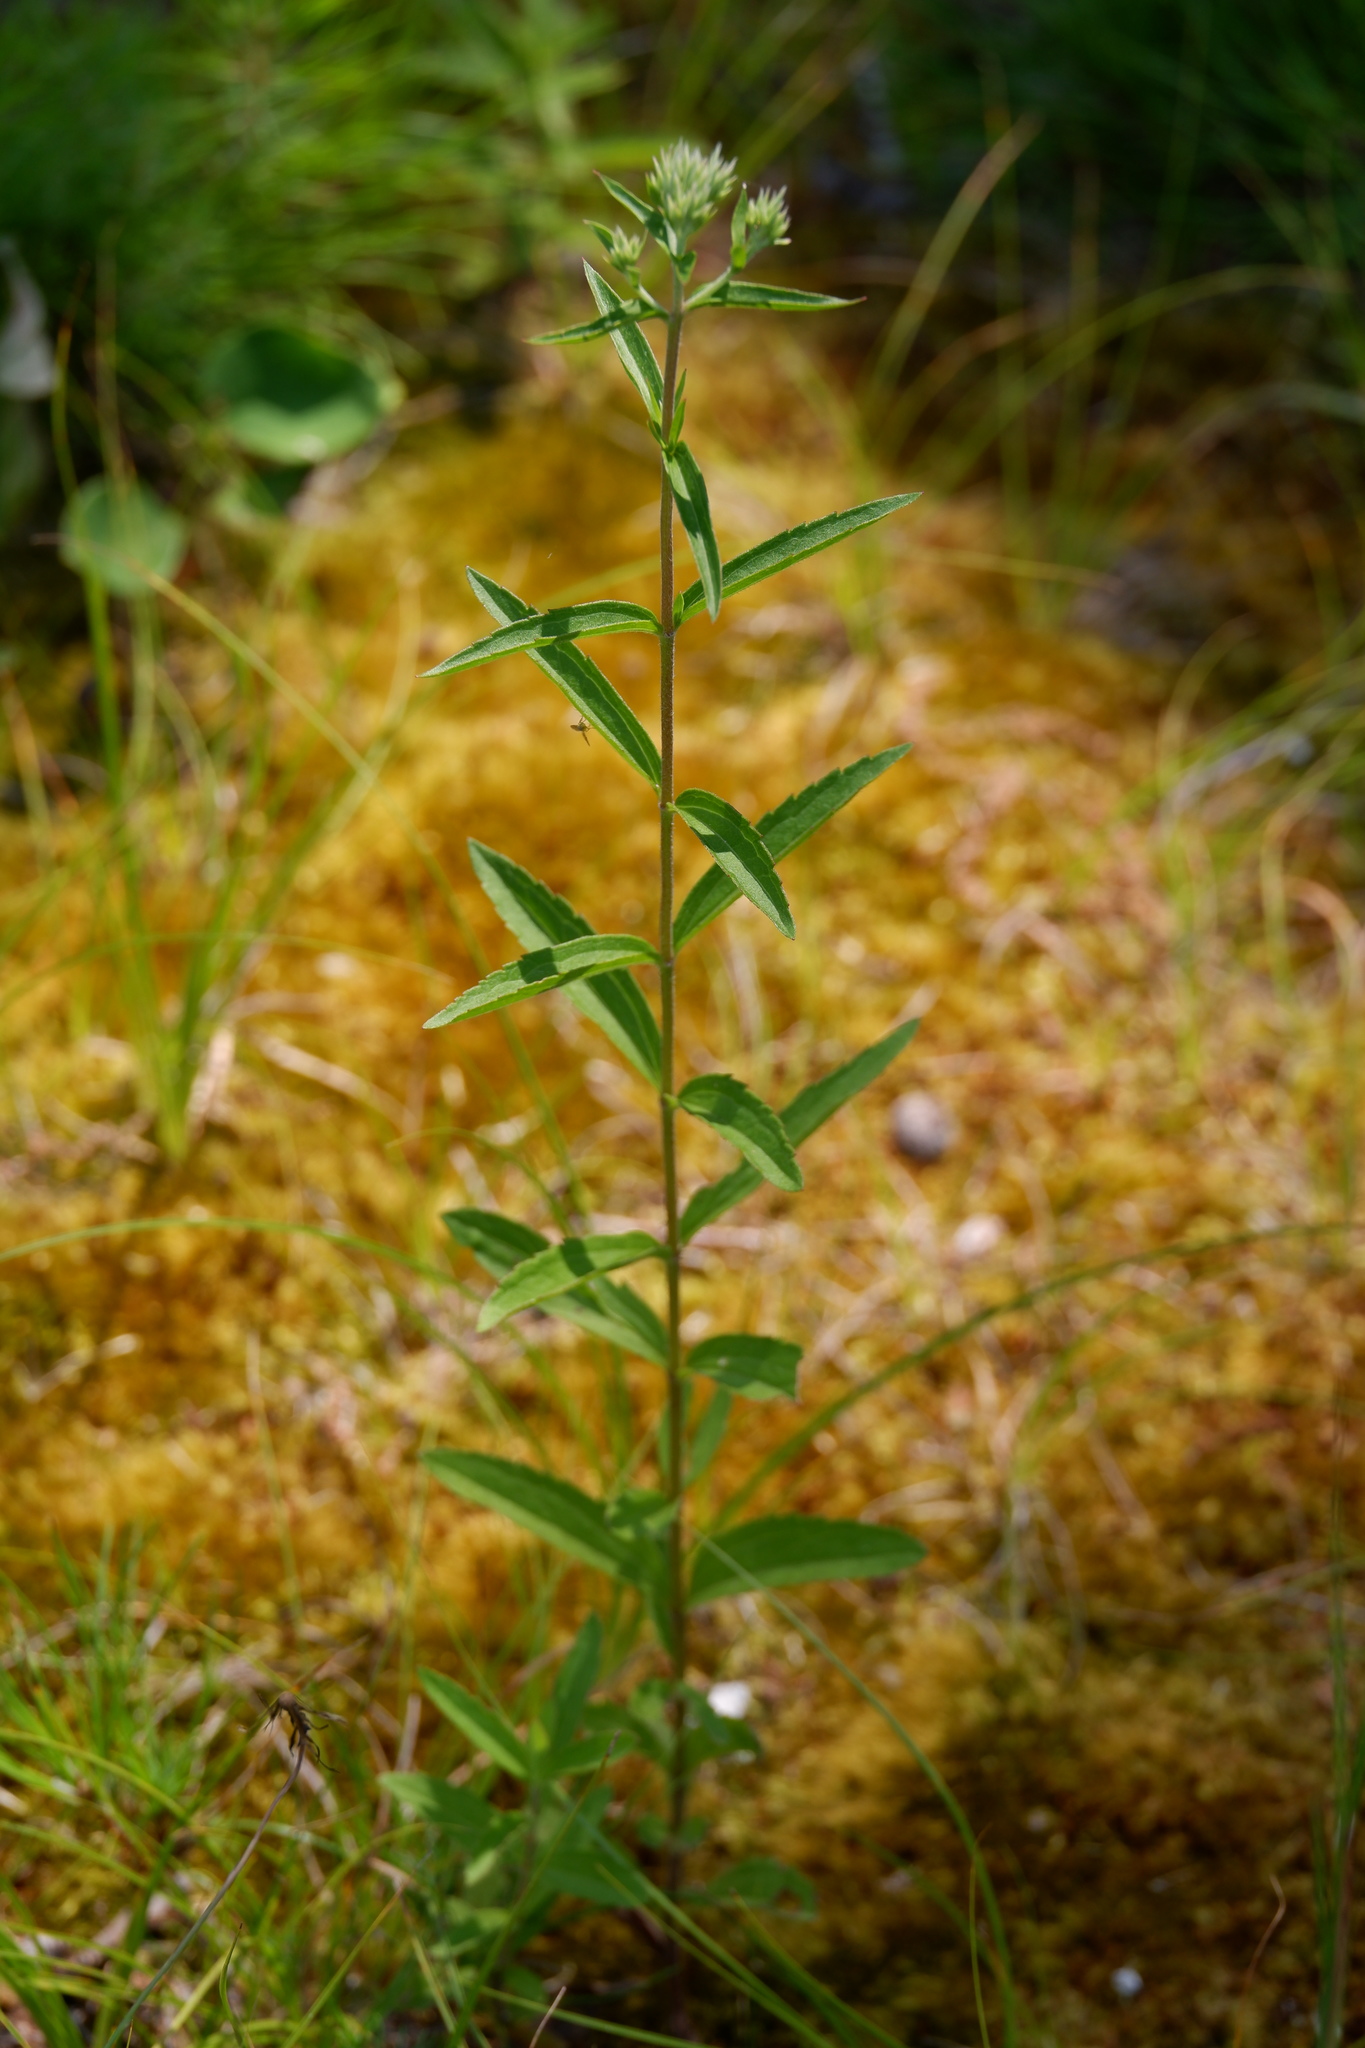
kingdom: Plantae
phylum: Tracheophyta
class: Magnoliopsida
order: Asterales
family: Asteraceae
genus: Eupatorium
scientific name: Eupatorium album
